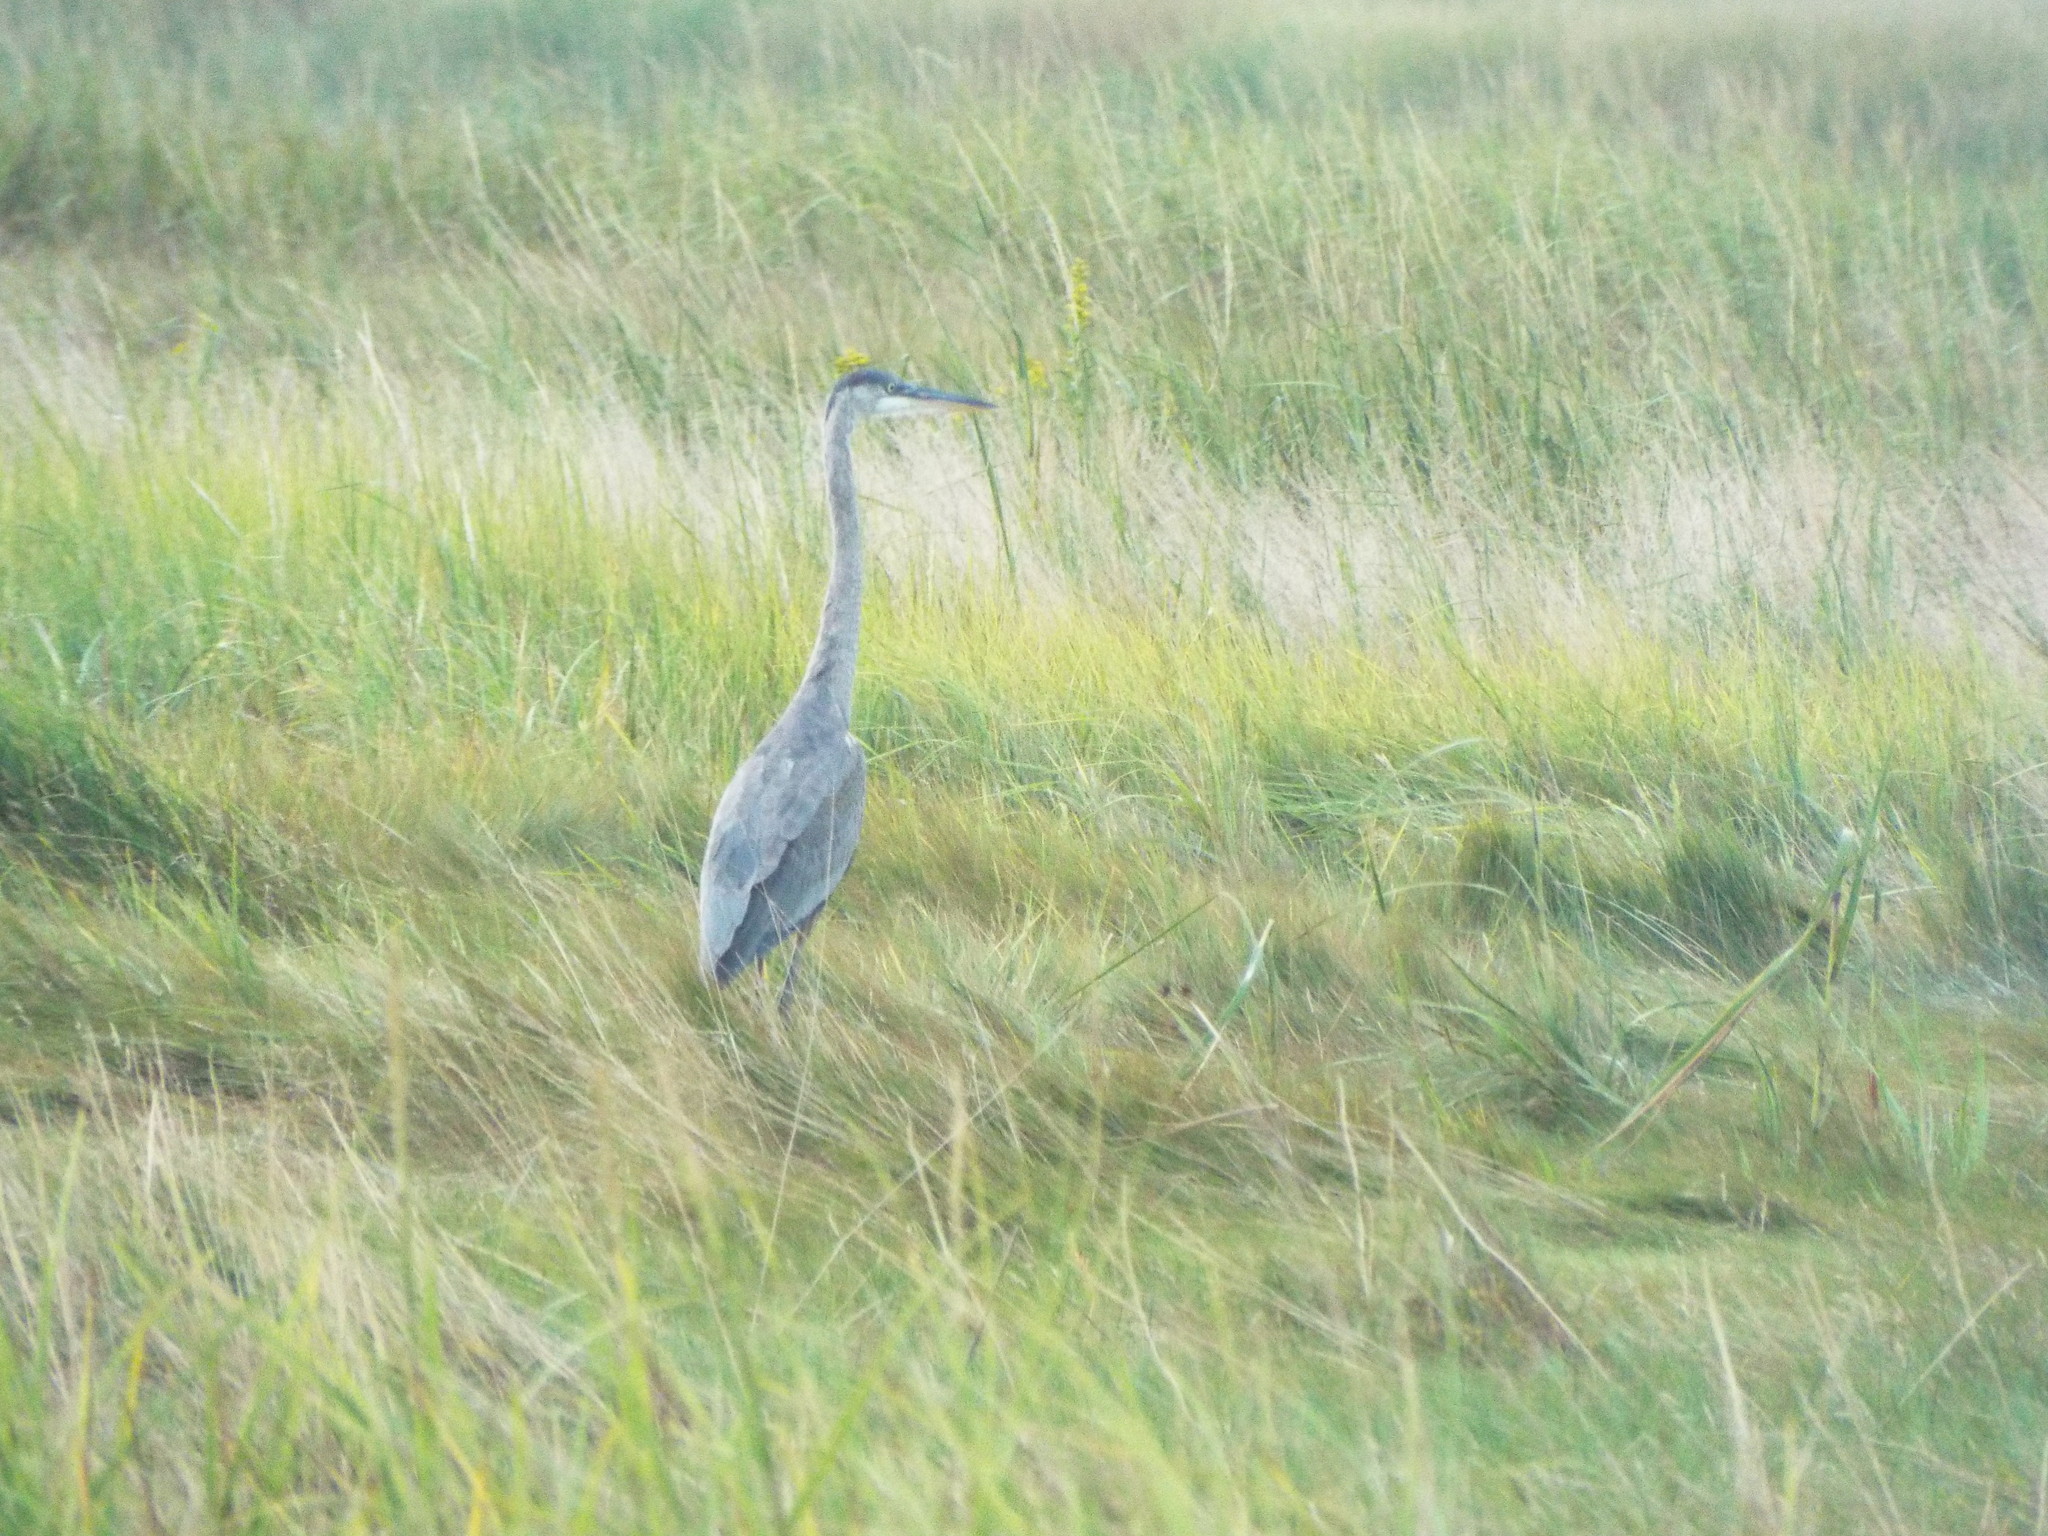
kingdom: Animalia
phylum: Chordata
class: Aves
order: Pelecaniformes
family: Ardeidae
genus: Ardea
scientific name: Ardea herodias
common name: Great blue heron
